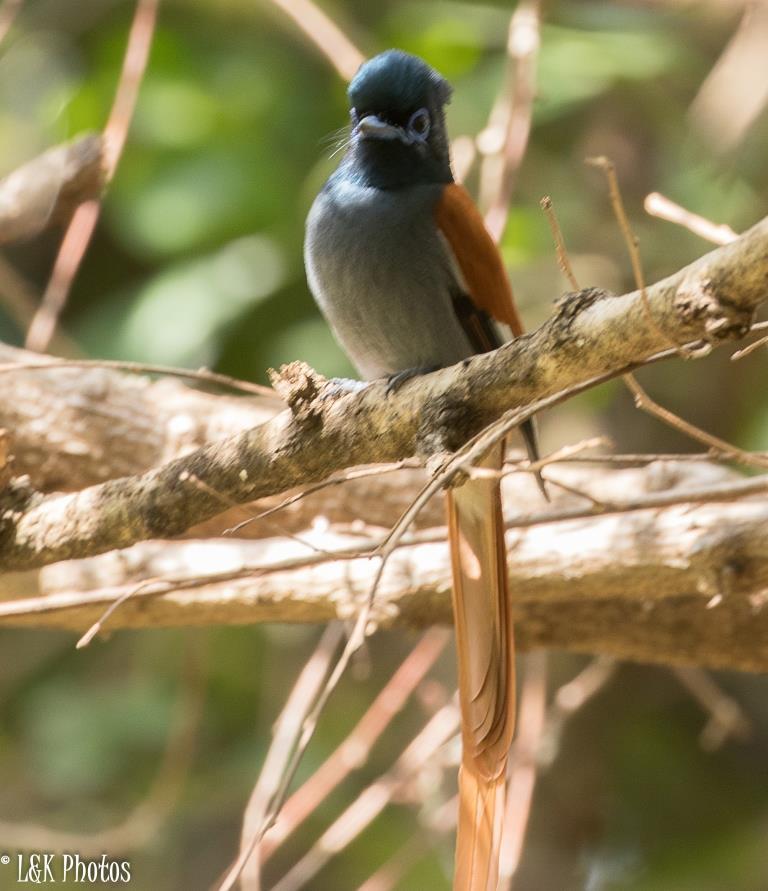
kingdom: Animalia
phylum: Chordata
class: Aves
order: Passeriformes
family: Monarchidae
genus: Terpsiphone
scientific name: Terpsiphone viridis
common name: African paradise flycatcher
